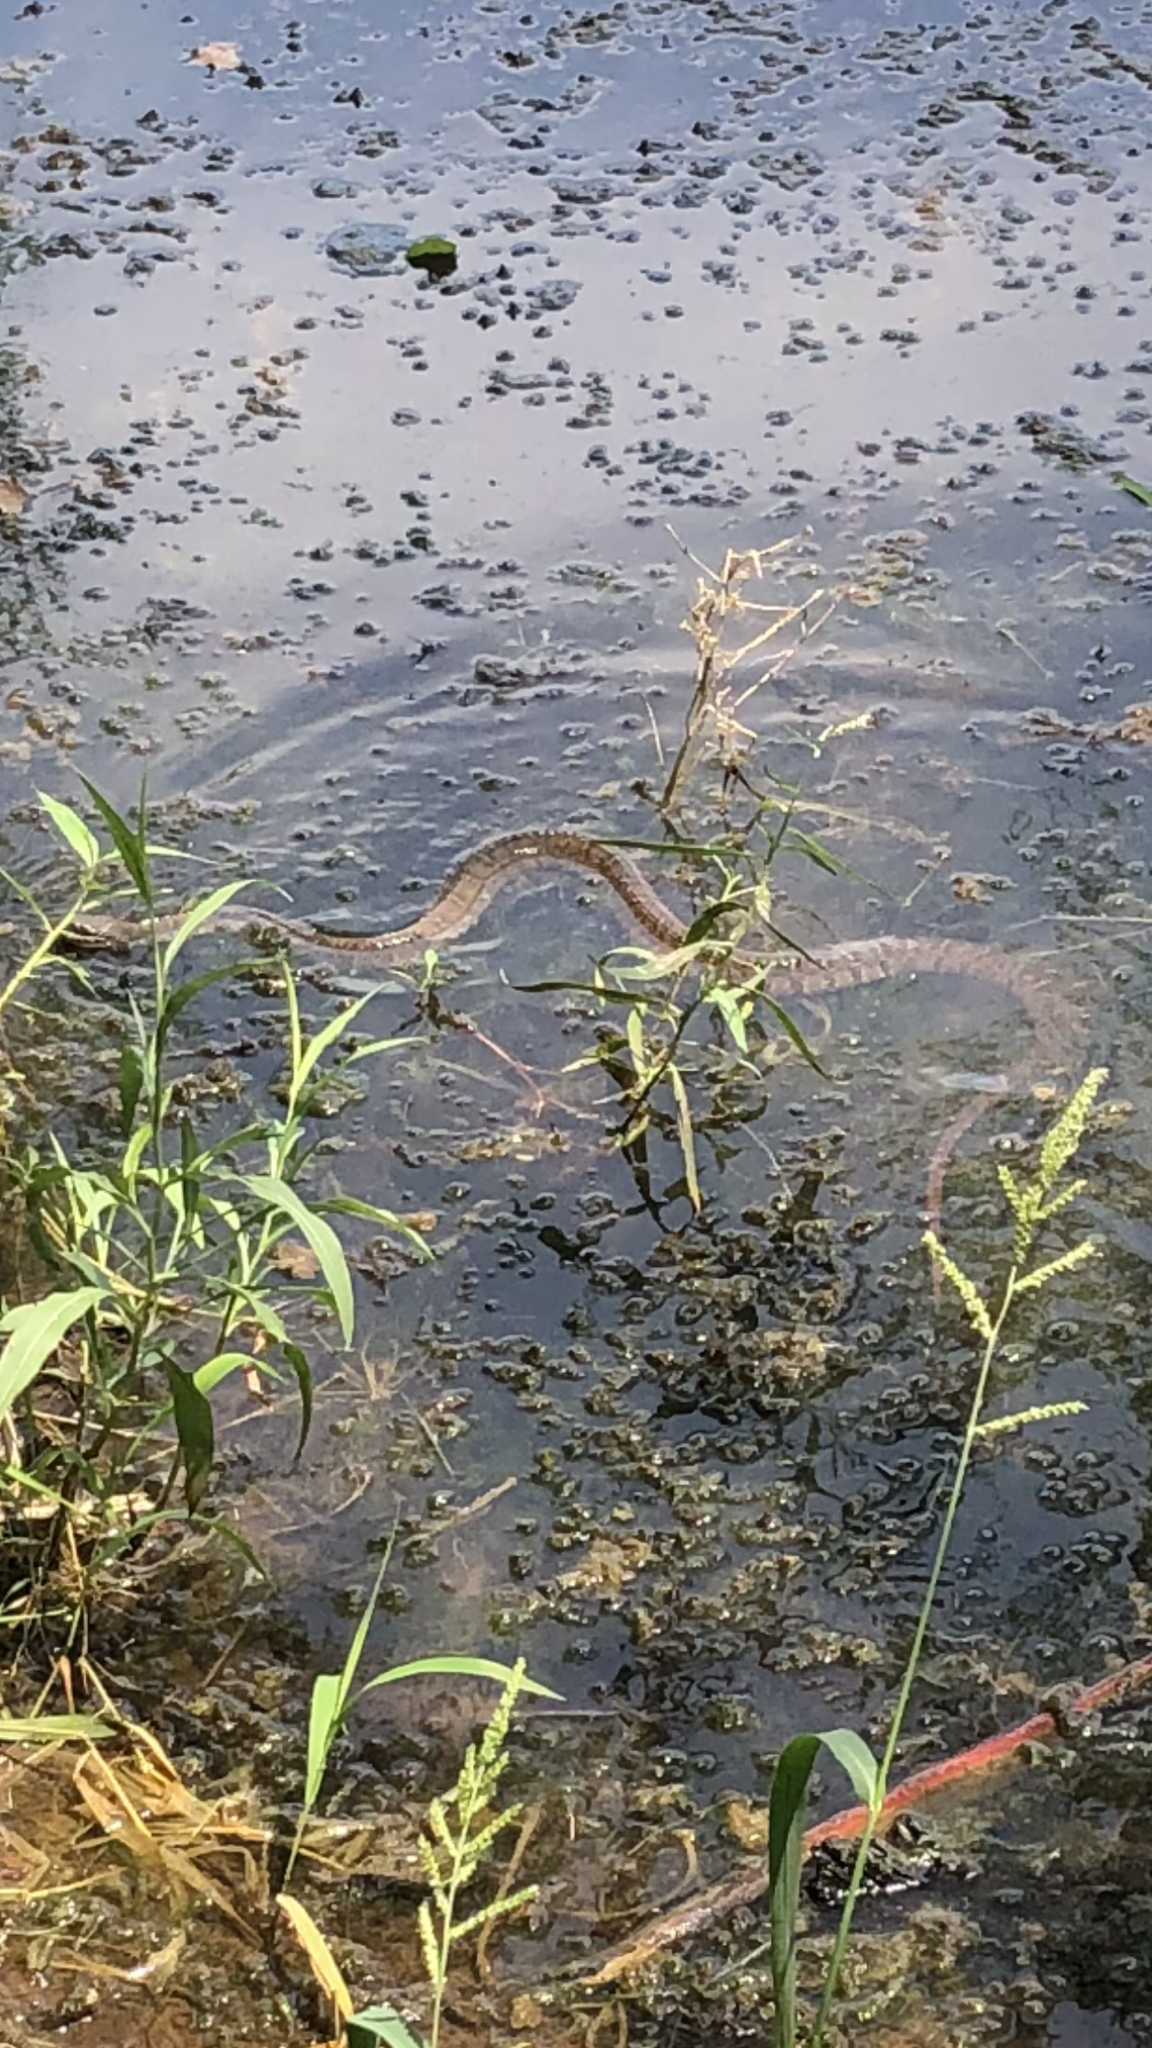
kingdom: Animalia
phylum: Chordata
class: Squamata
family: Colubridae
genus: Nerodia
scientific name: Nerodia erythrogaster
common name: Plainbelly water snake
